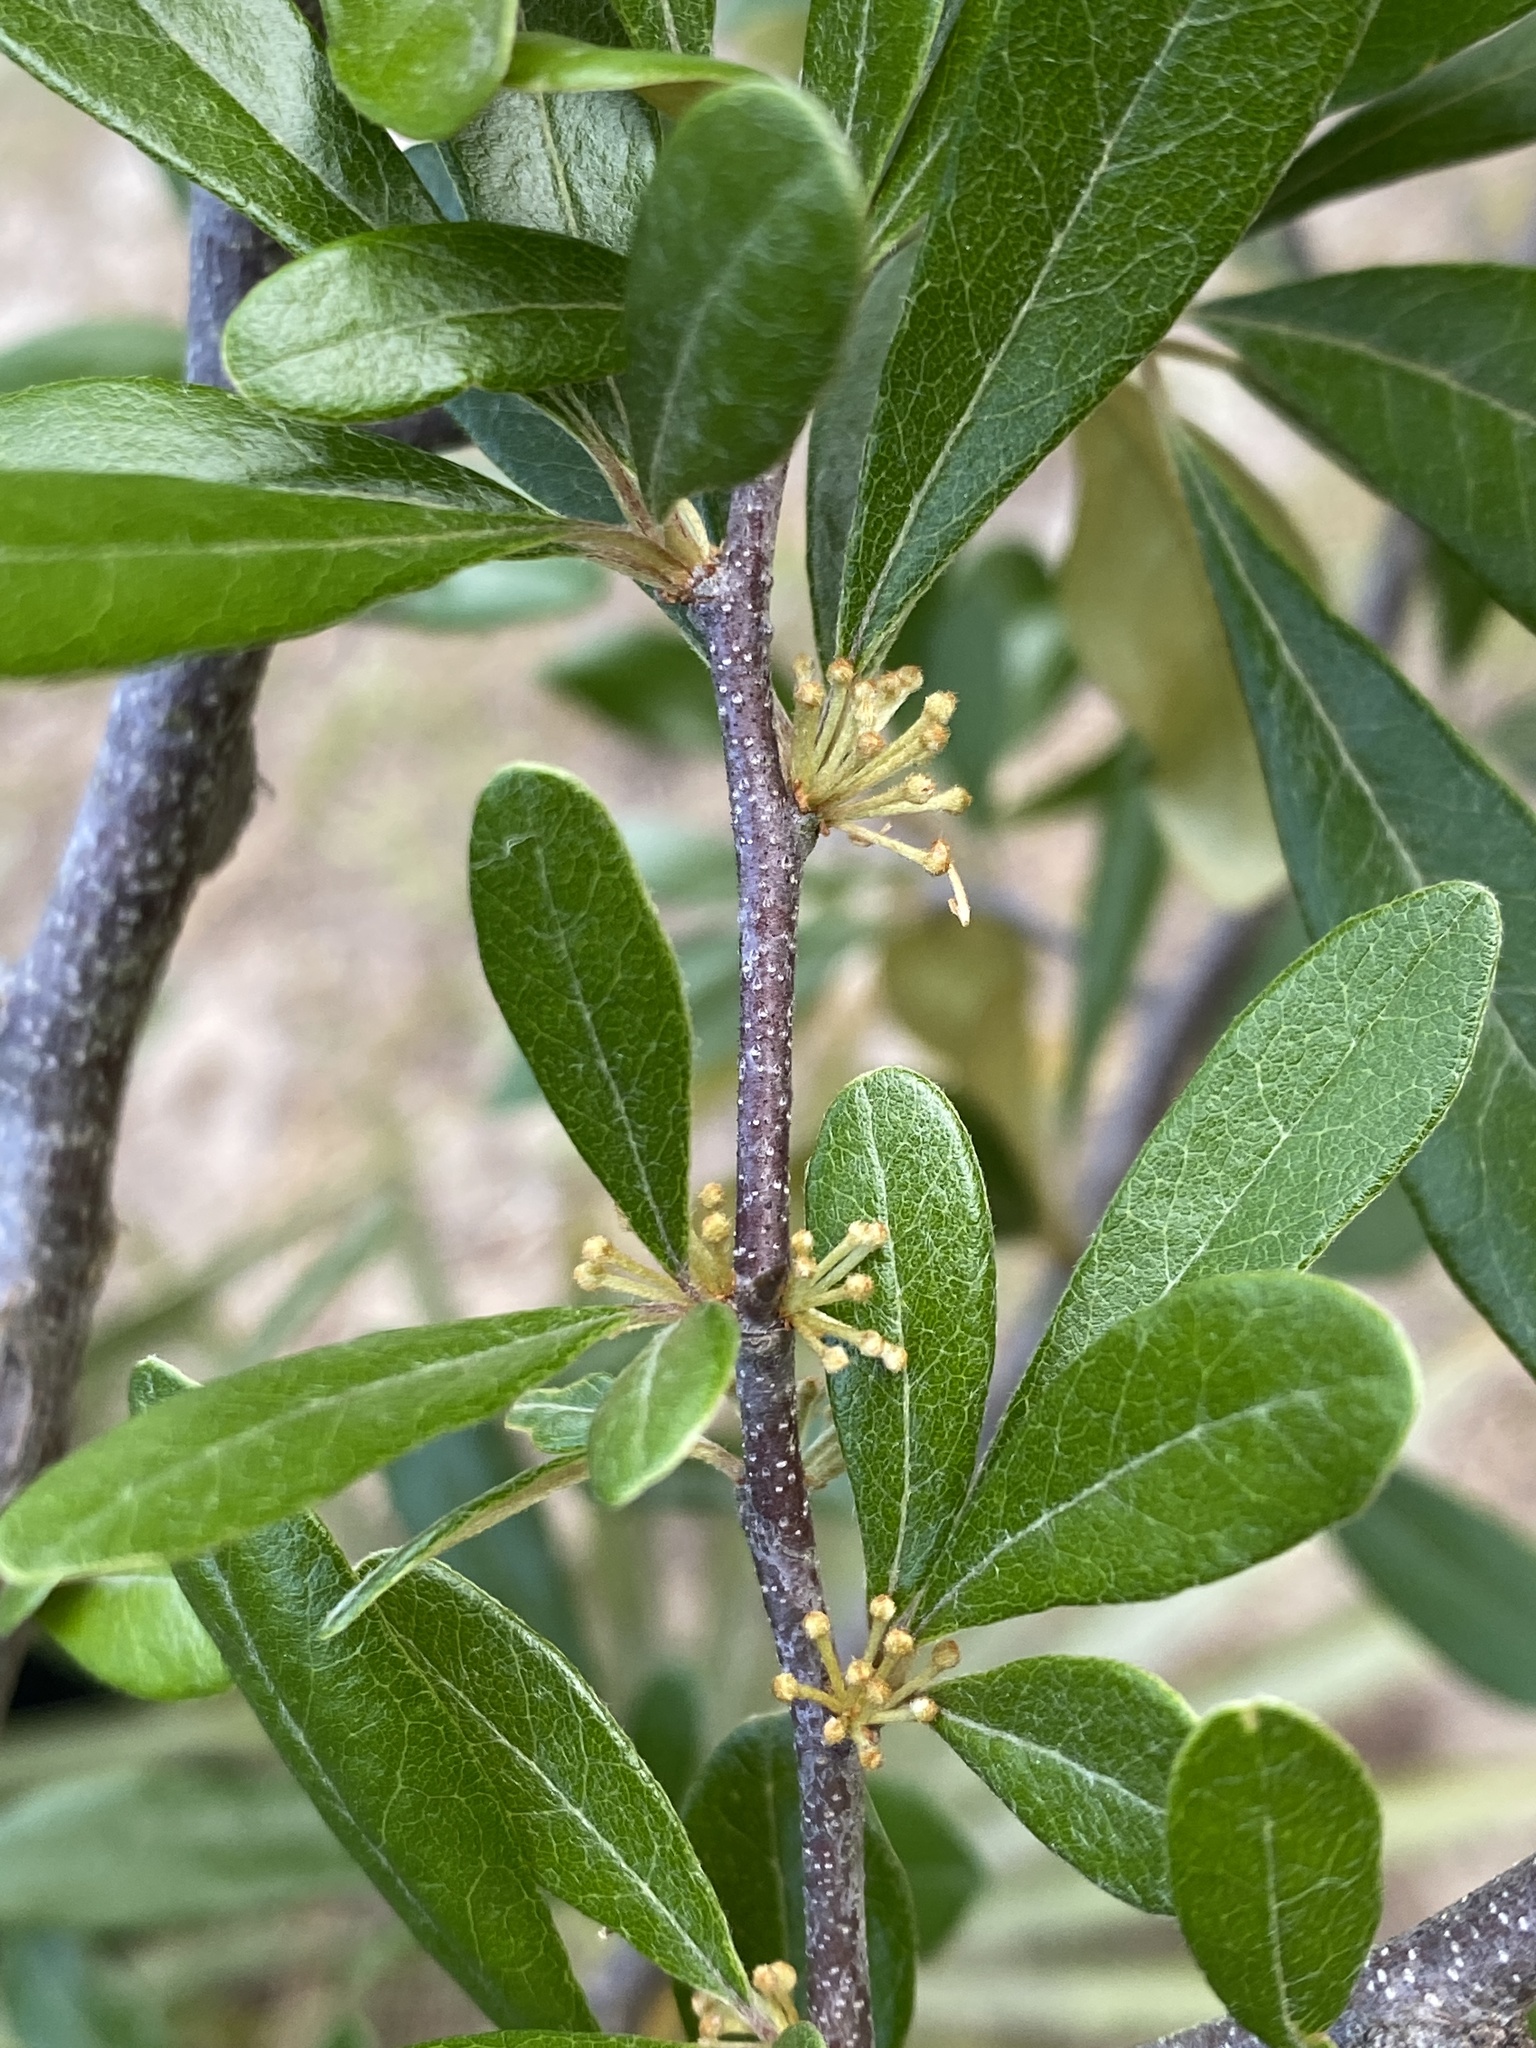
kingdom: Plantae
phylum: Tracheophyta
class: Magnoliopsida
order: Ericales
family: Sapotaceae
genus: Sideroxylon
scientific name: Sideroxylon tenax
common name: Tough-buckthorn
